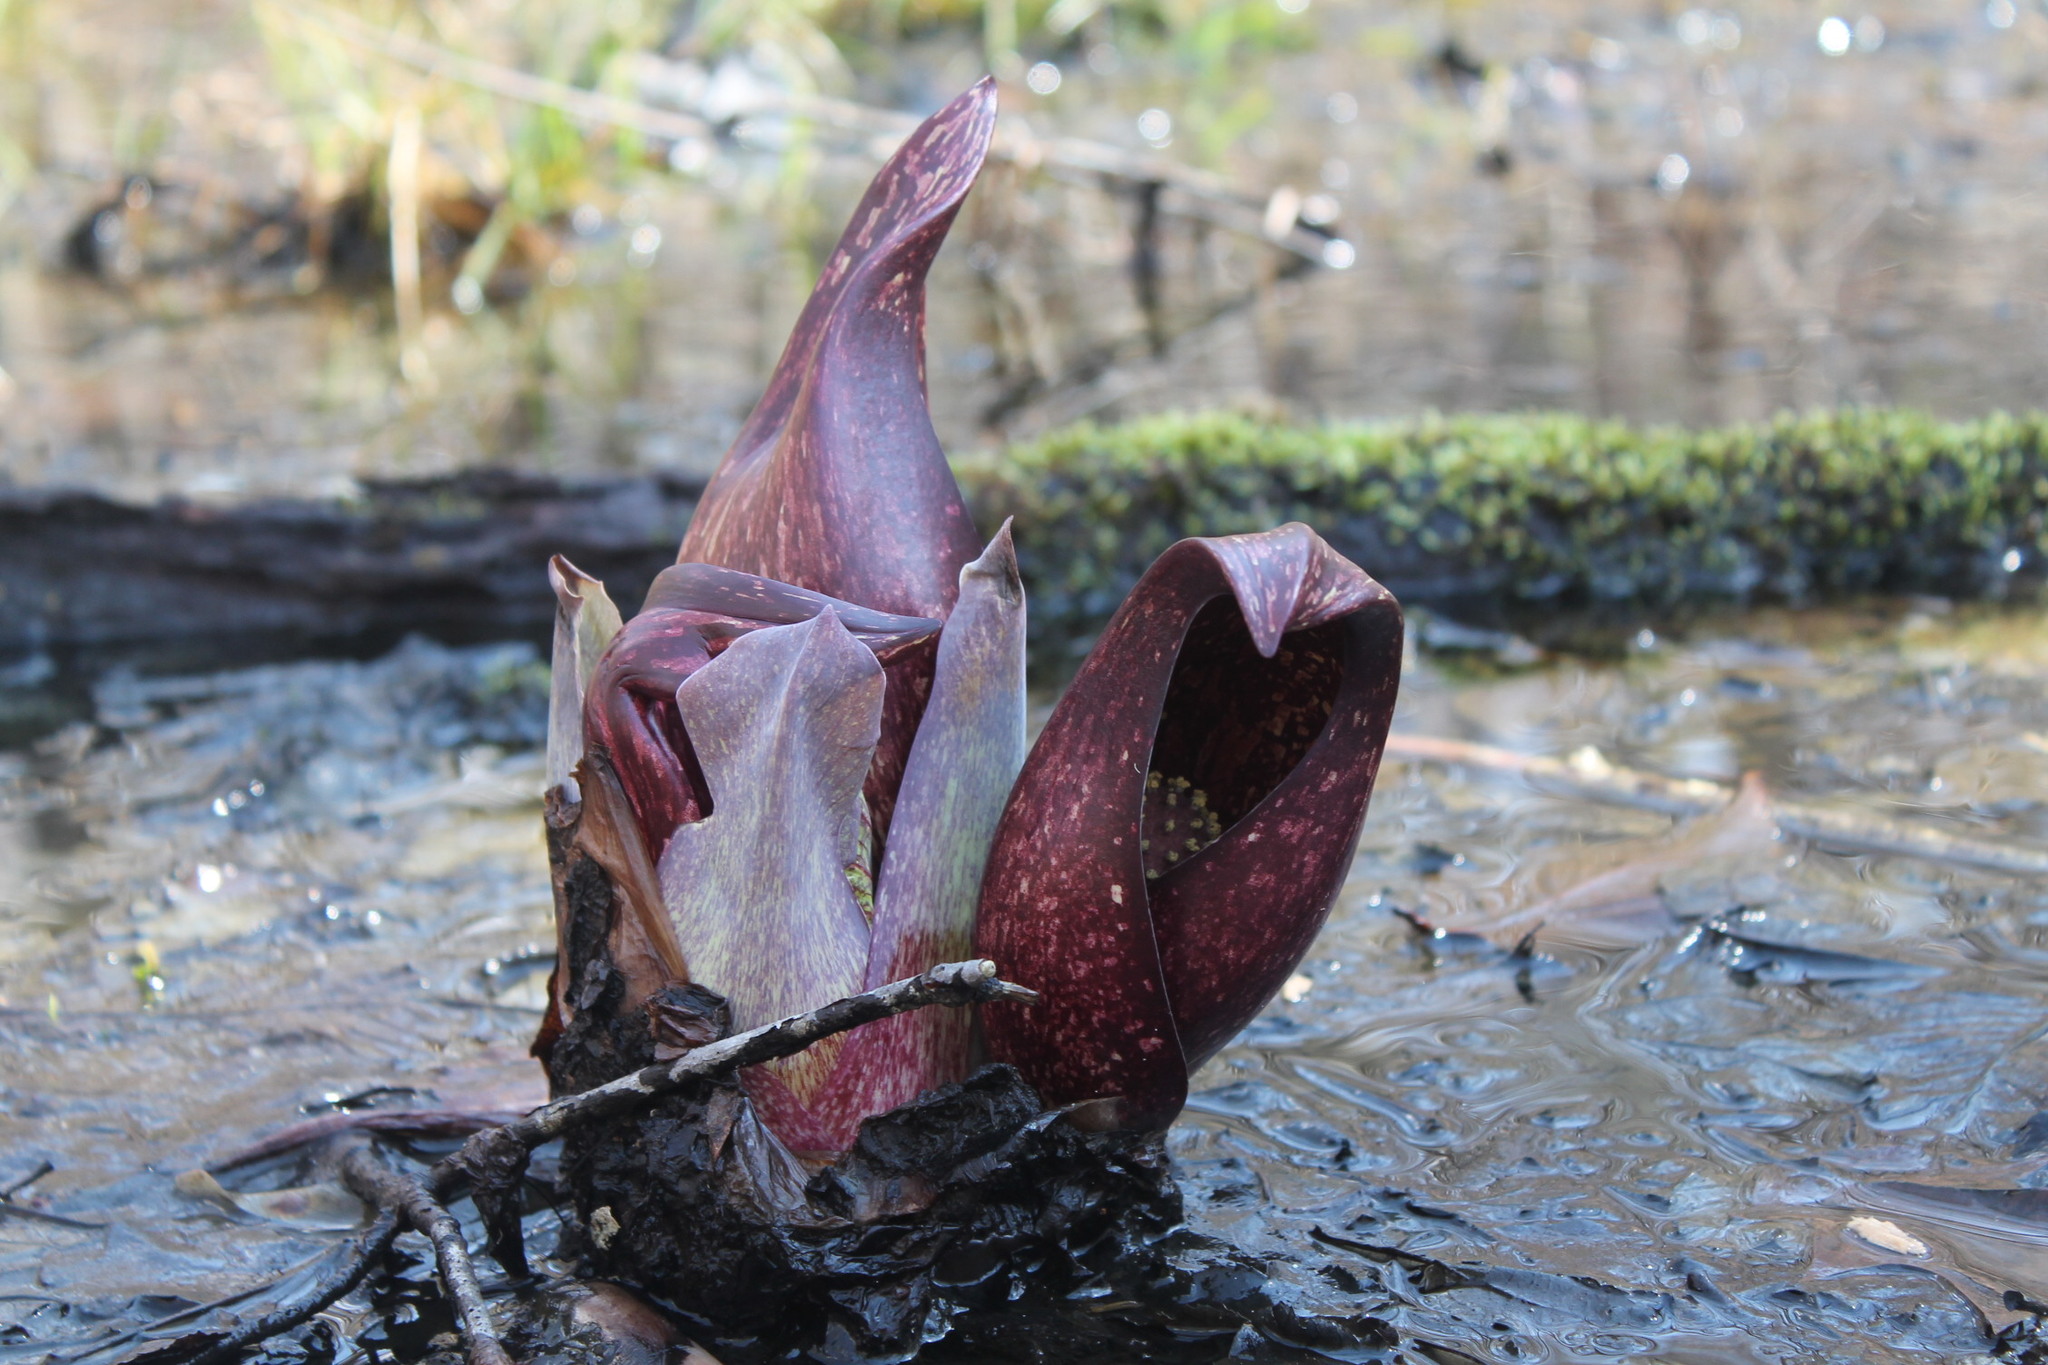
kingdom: Plantae
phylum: Tracheophyta
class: Liliopsida
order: Alismatales
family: Araceae
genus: Symplocarpus
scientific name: Symplocarpus foetidus
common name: Eastern skunk cabbage
